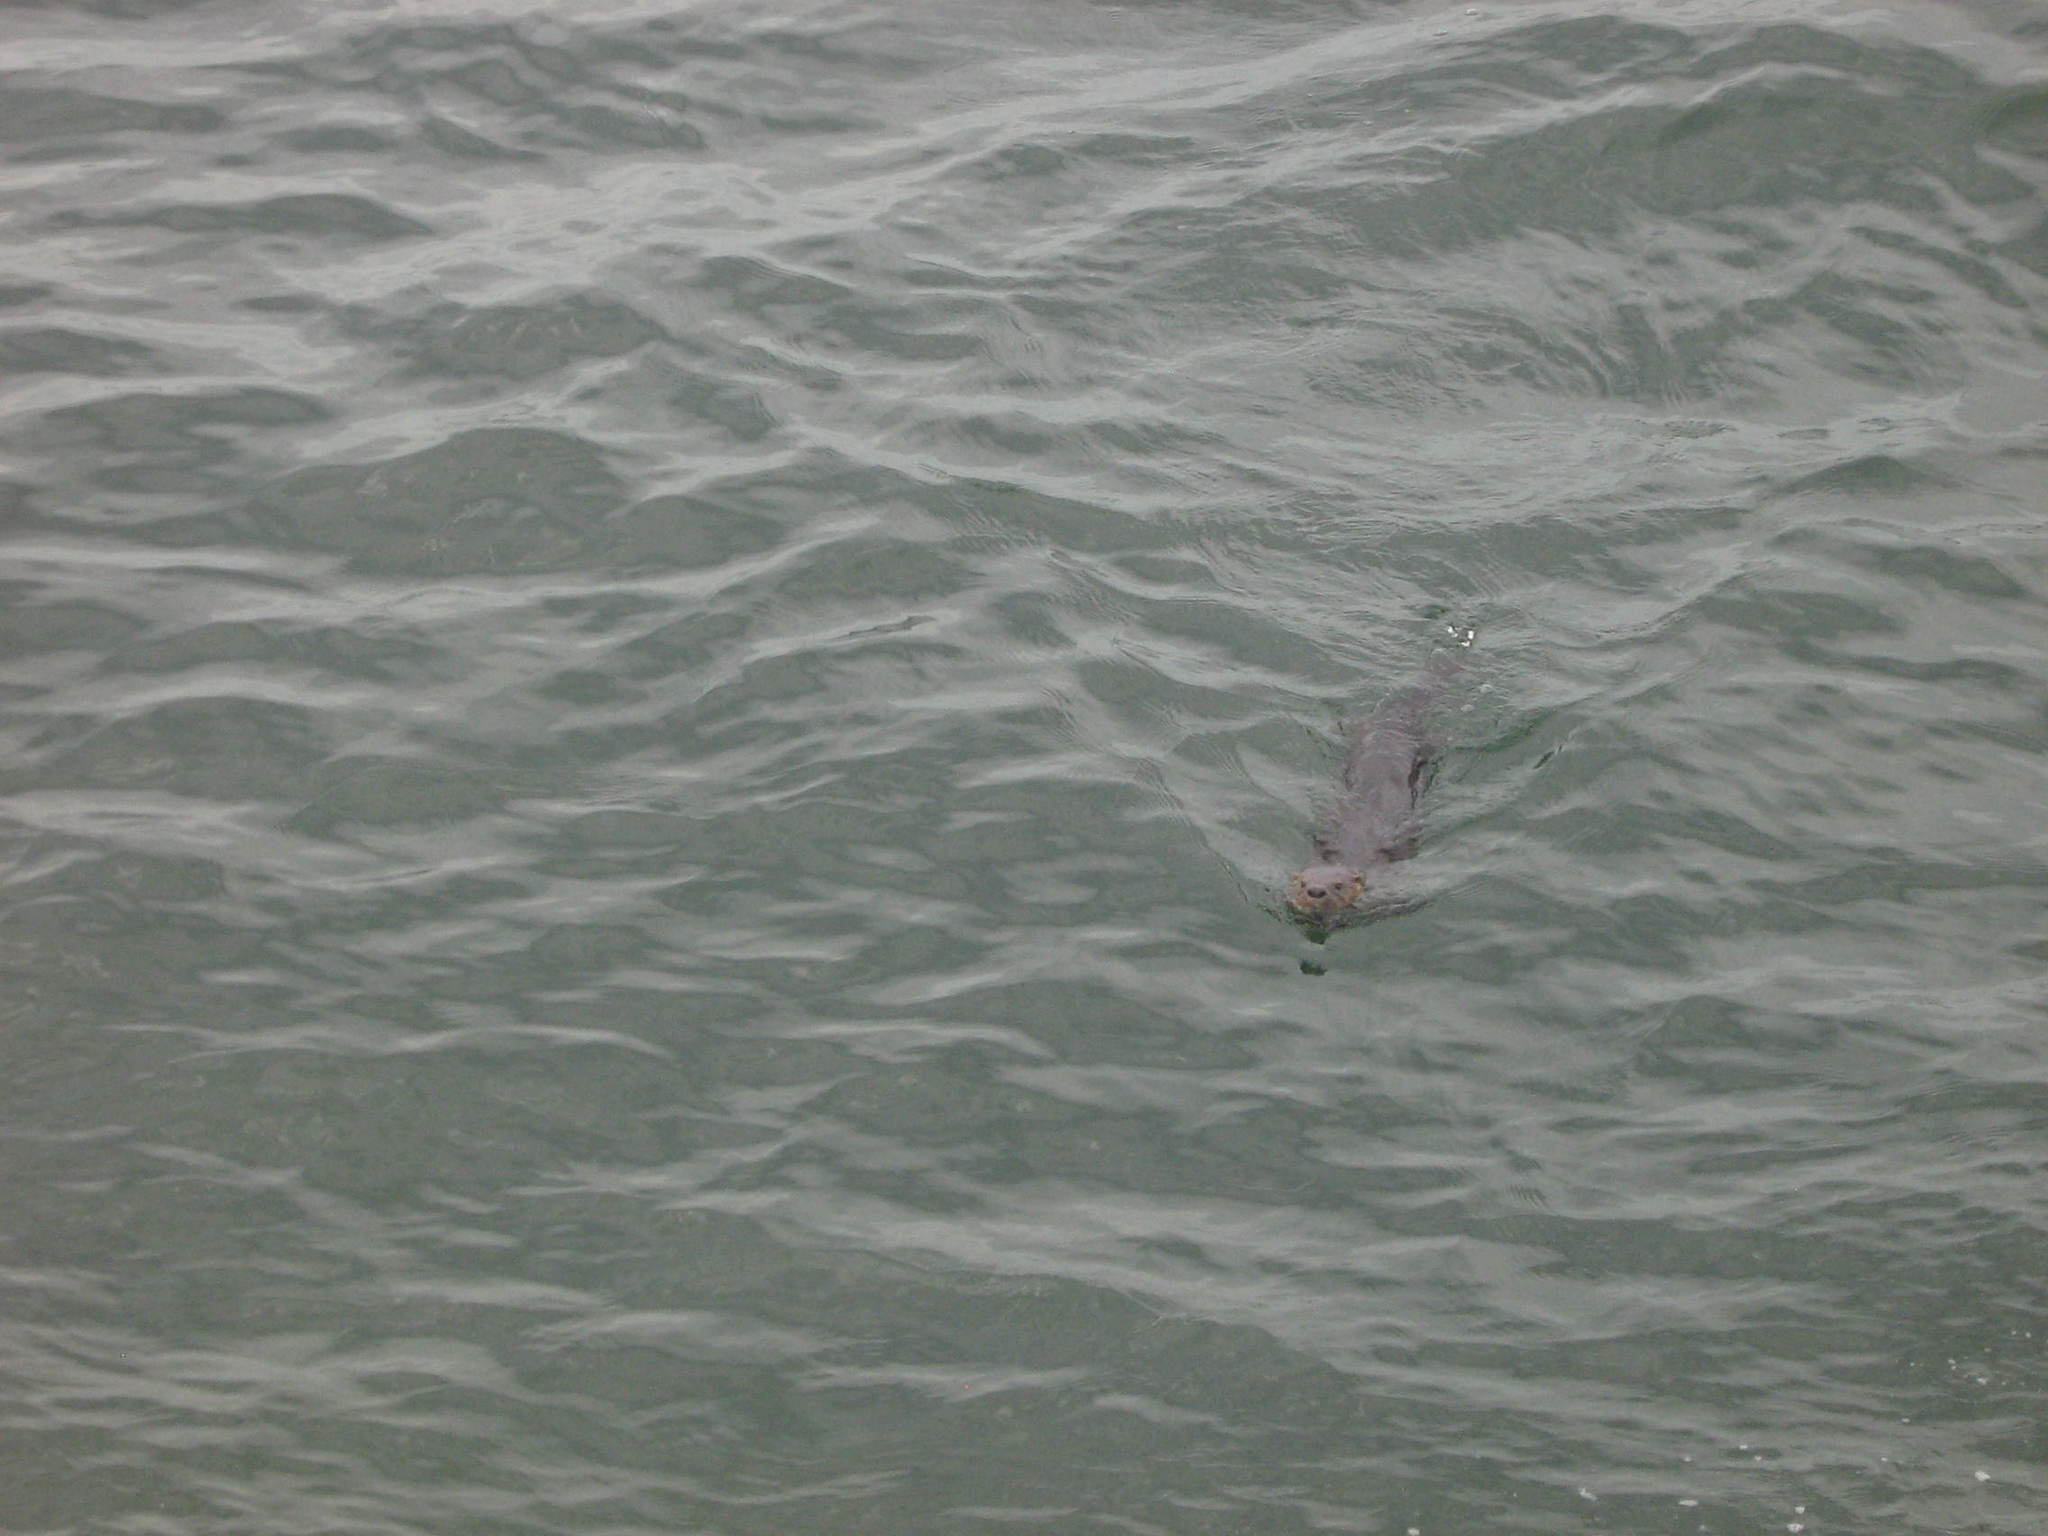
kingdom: Animalia
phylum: Chordata
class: Mammalia
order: Carnivora
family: Mustelidae
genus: Lontra
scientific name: Lontra felina
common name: Marine otter
